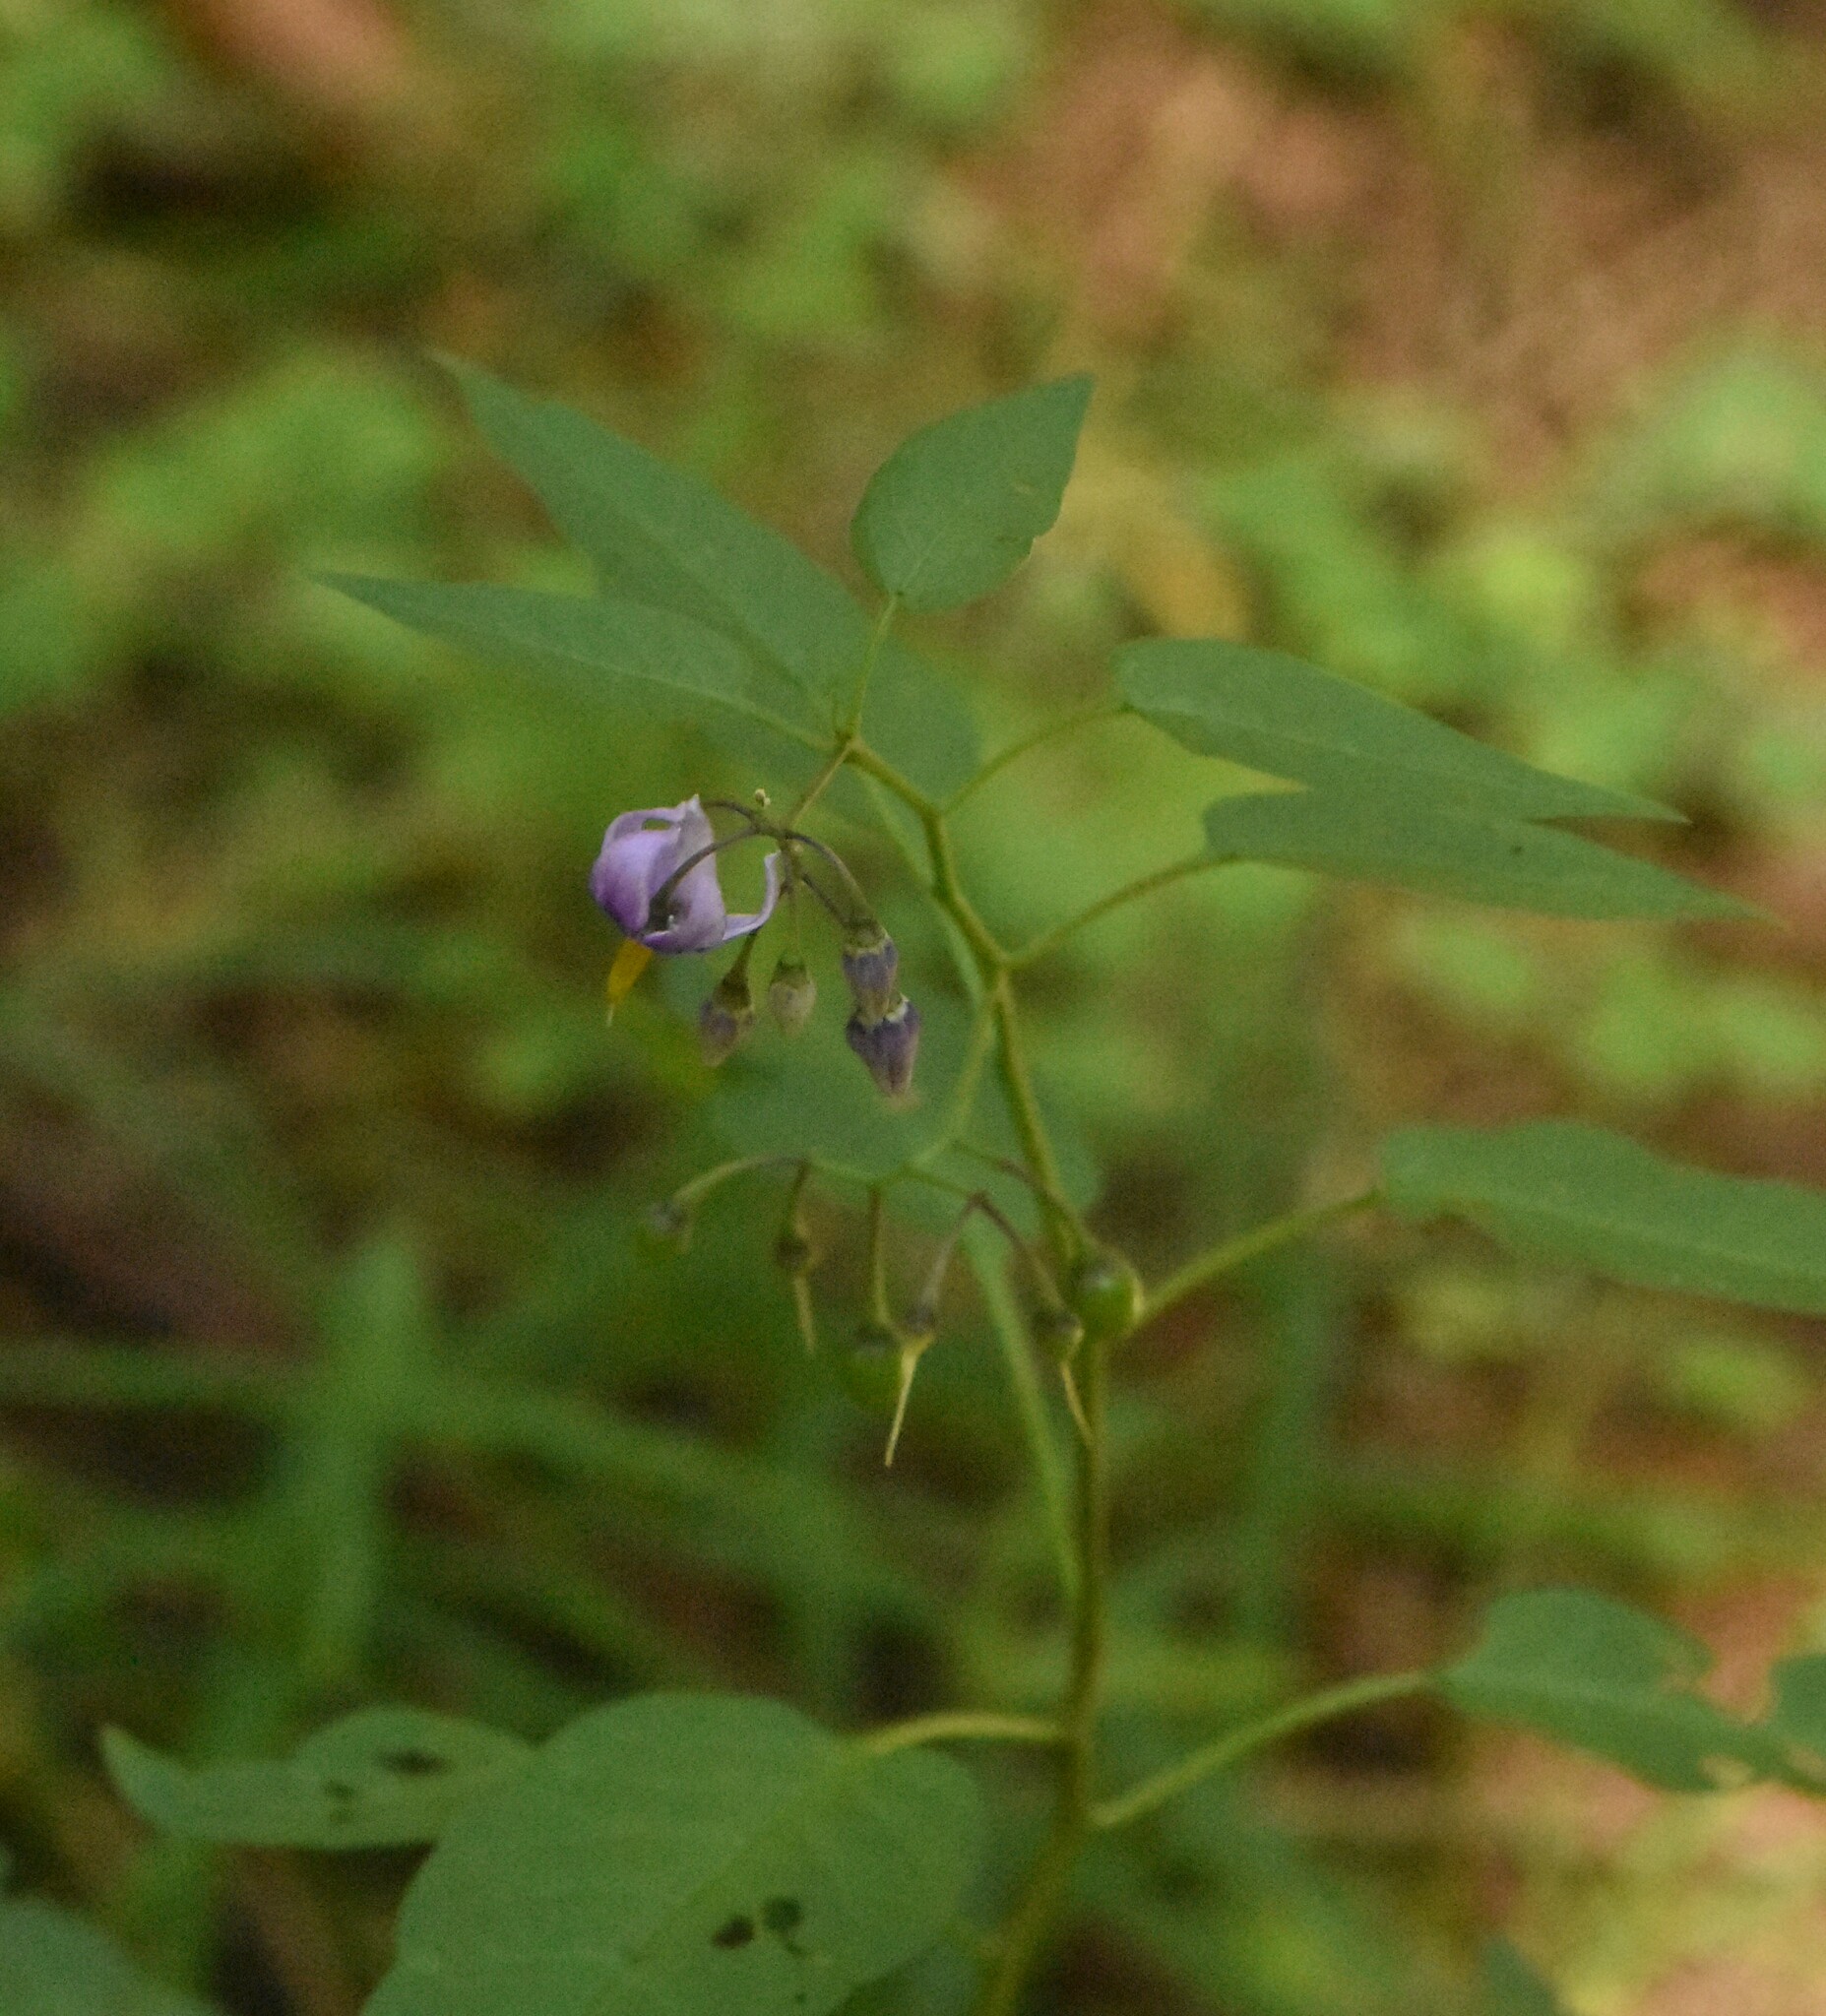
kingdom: Plantae
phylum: Tracheophyta
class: Magnoliopsida
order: Solanales
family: Solanaceae
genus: Solanum
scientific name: Solanum dulcamara
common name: Climbing nightshade
